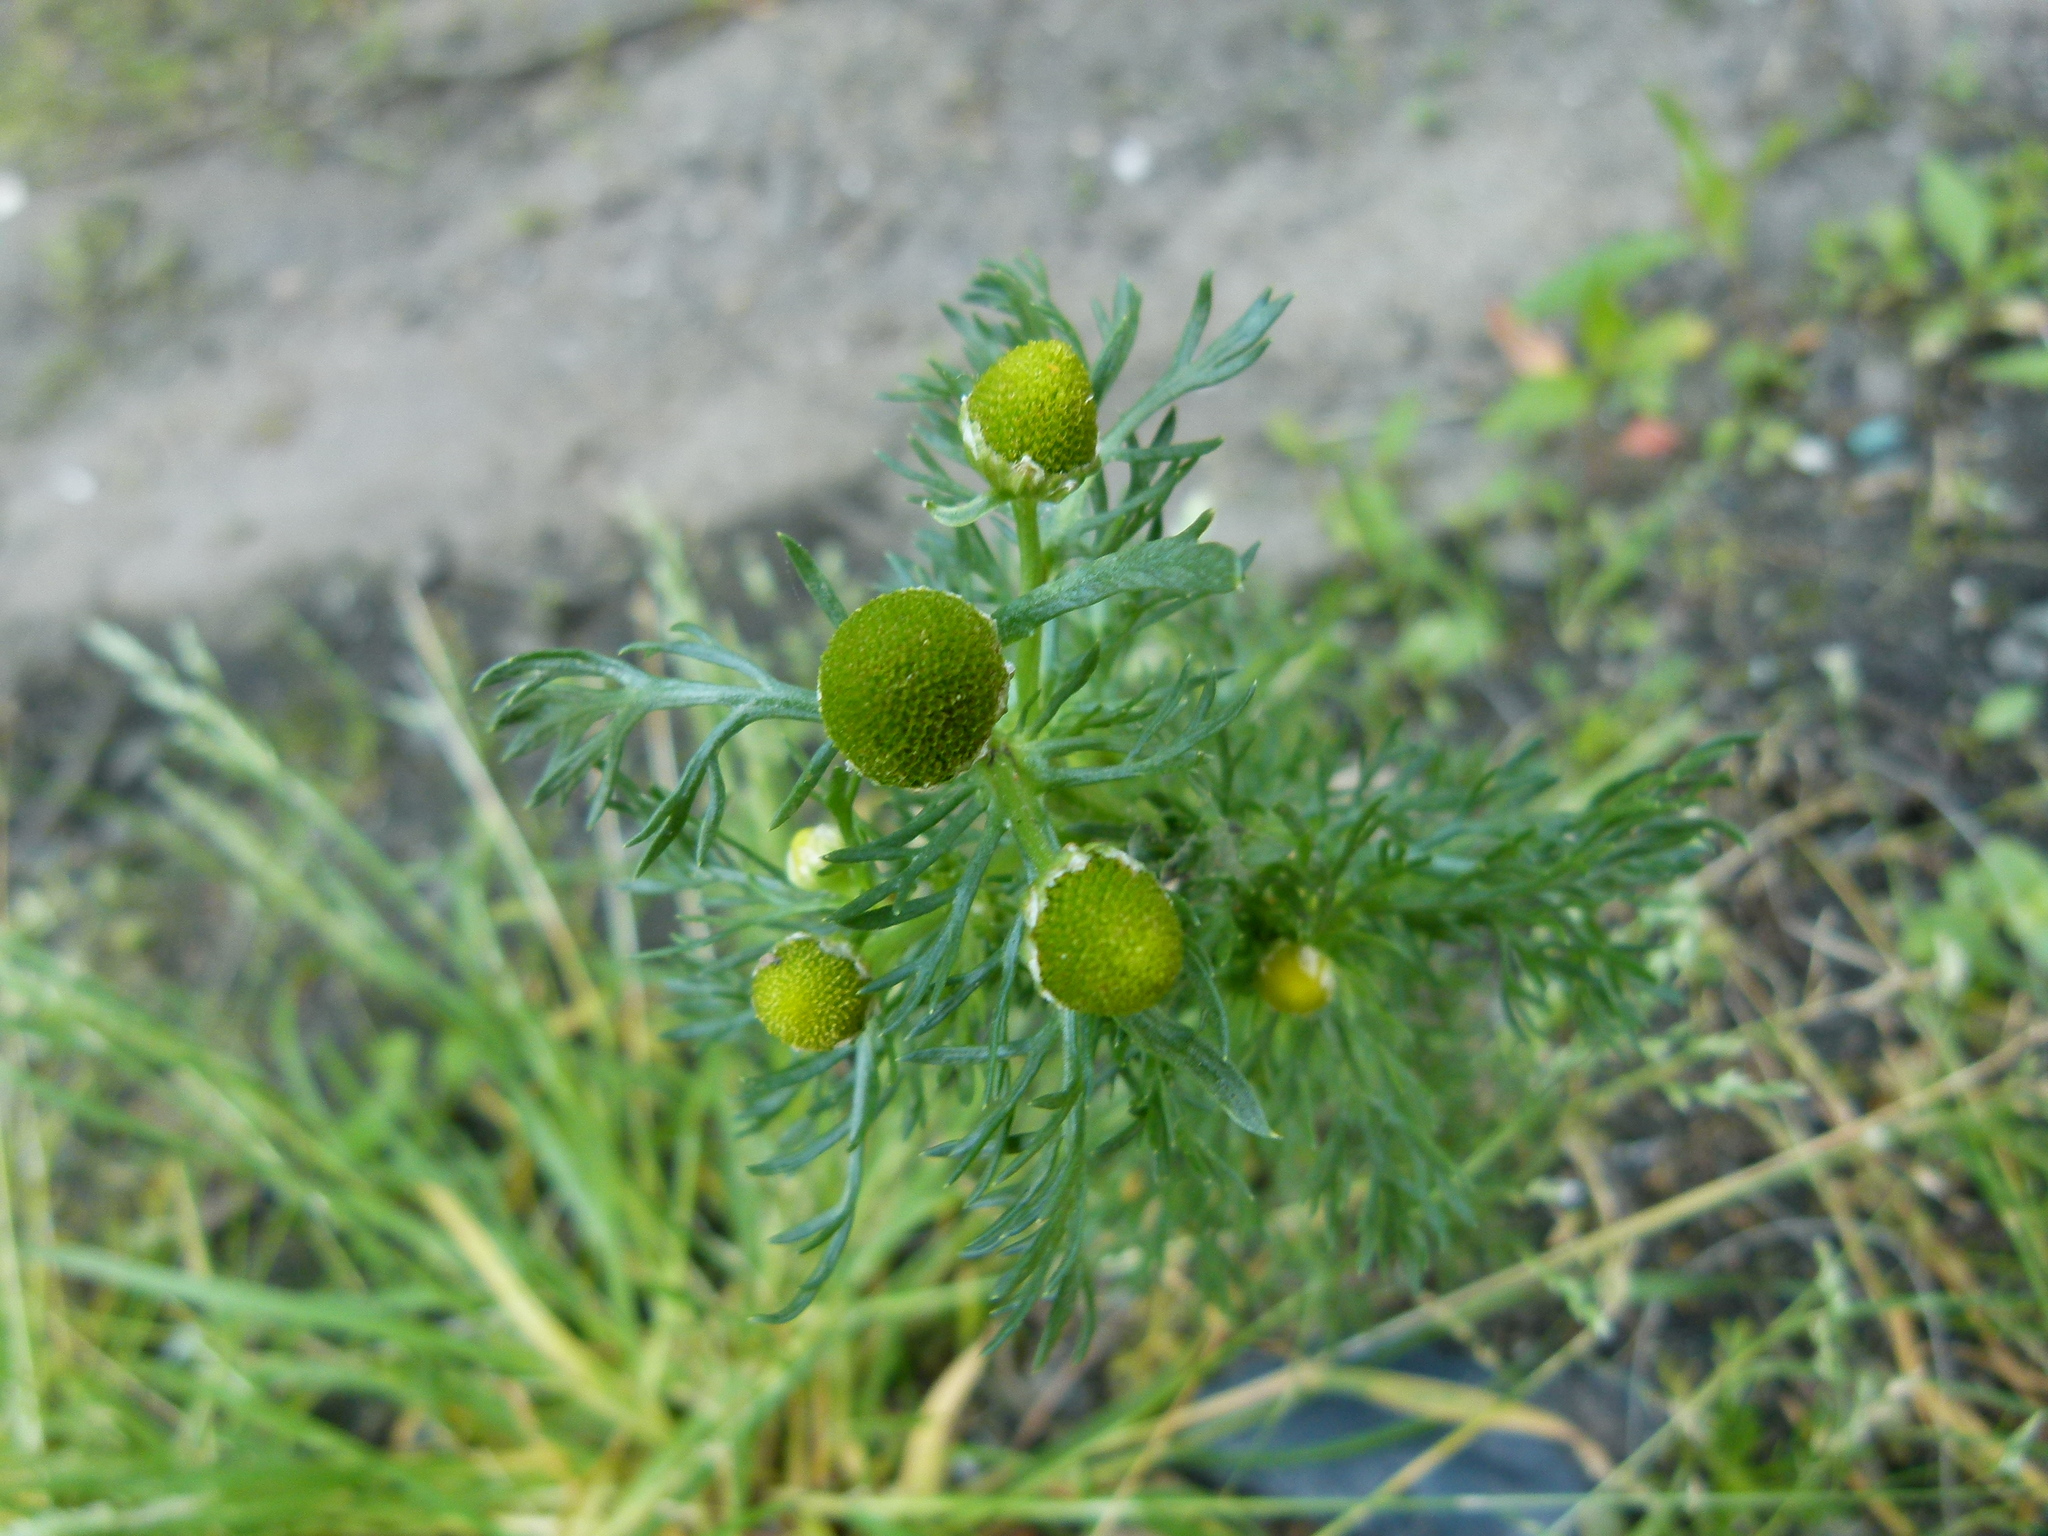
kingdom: Plantae
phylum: Tracheophyta
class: Magnoliopsida
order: Asterales
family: Asteraceae
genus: Matricaria
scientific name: Matricaria discoidea
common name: Disc mayweed
